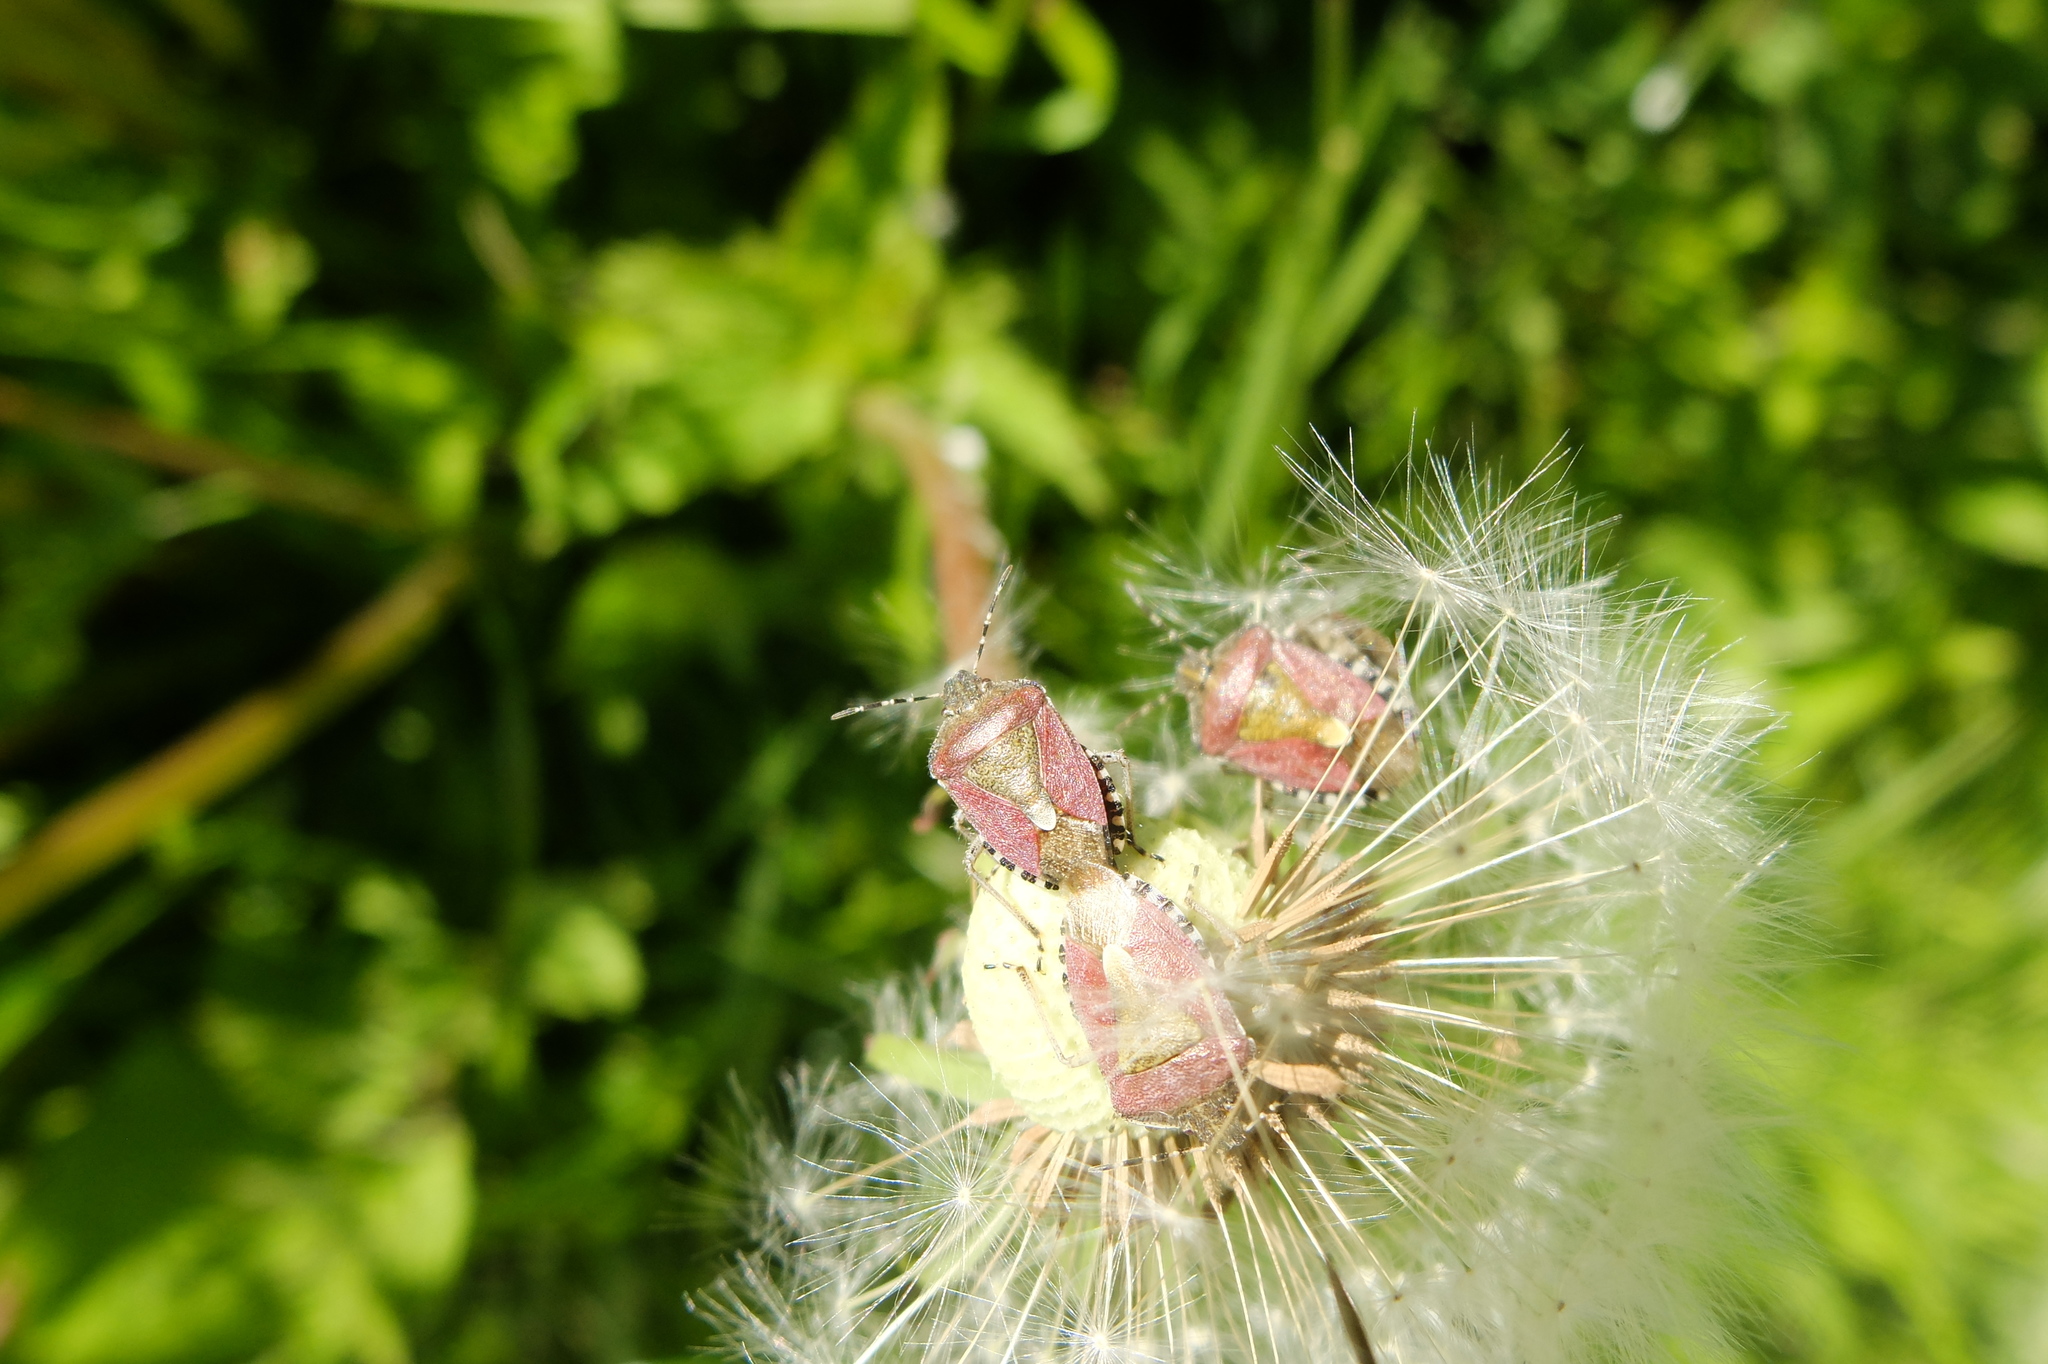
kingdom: Animalia
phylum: Arthropoda
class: Insecta
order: Hemiptera
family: Pentatomidae
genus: Dolycoris
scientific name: Dolycoris baccarum
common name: Sloe bug
